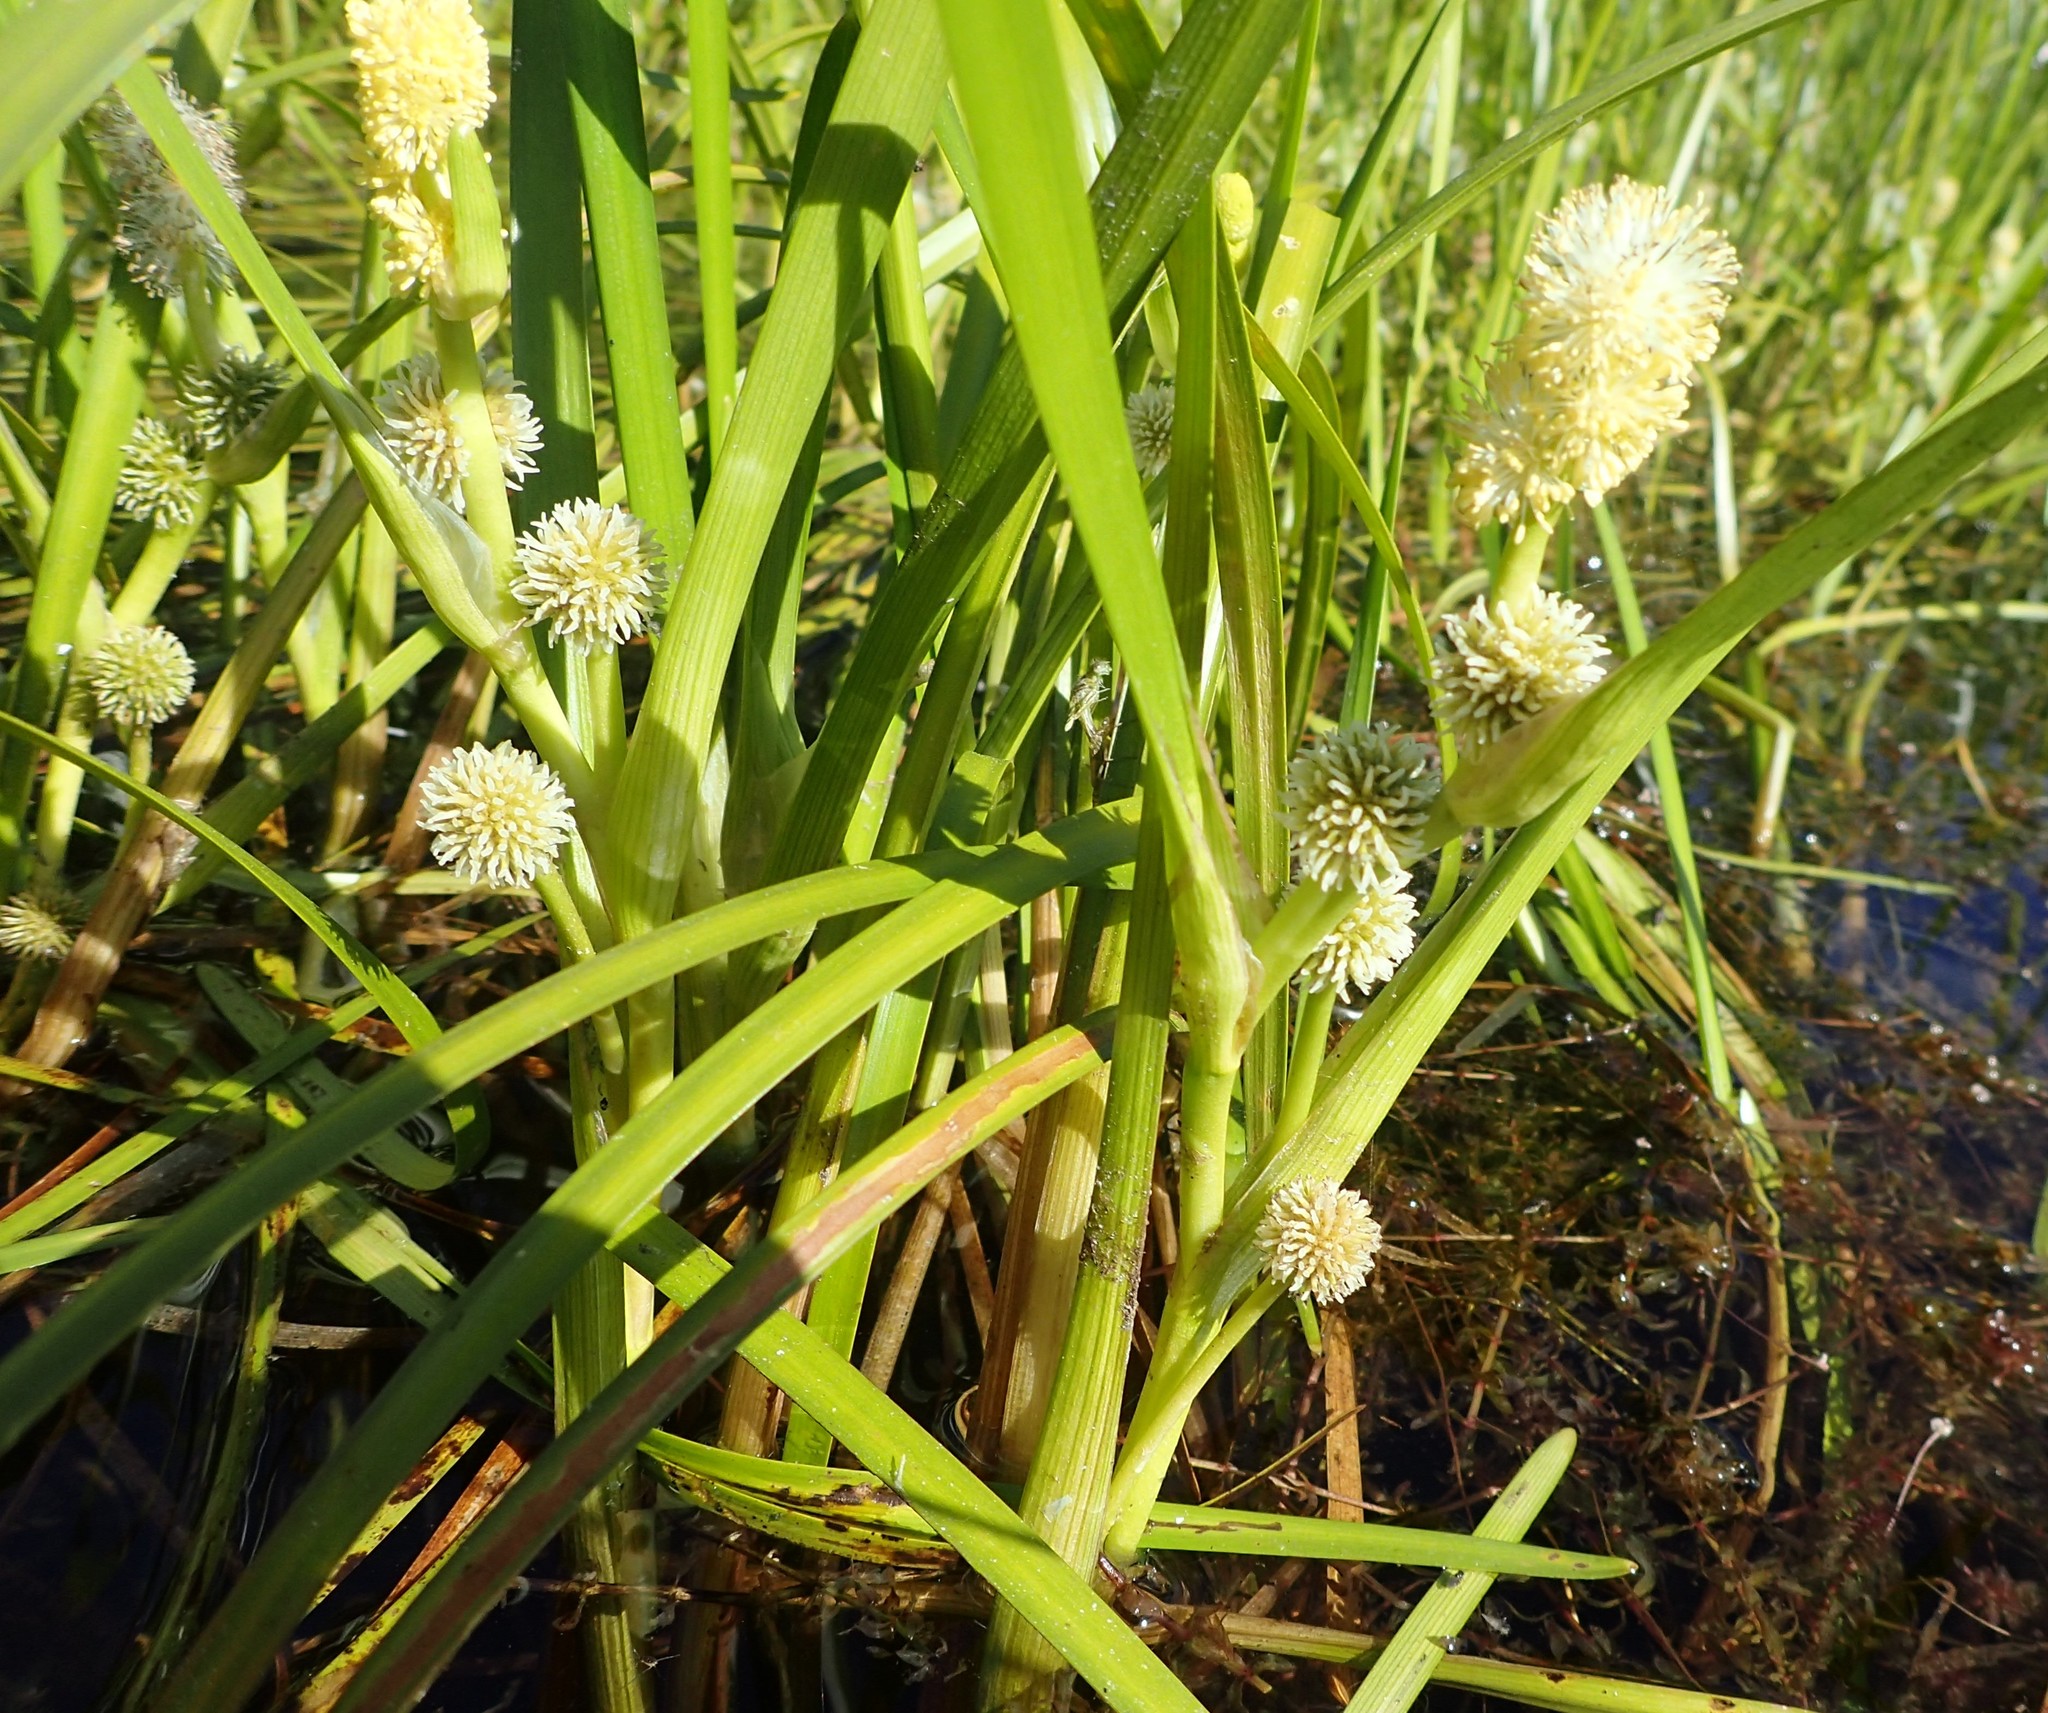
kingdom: Plantae
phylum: Tracheophyta
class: Liliopsida
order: Poales
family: Typhaceae
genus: Sparganium
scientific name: Sparganium emersum
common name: Unbranched bur-reed
